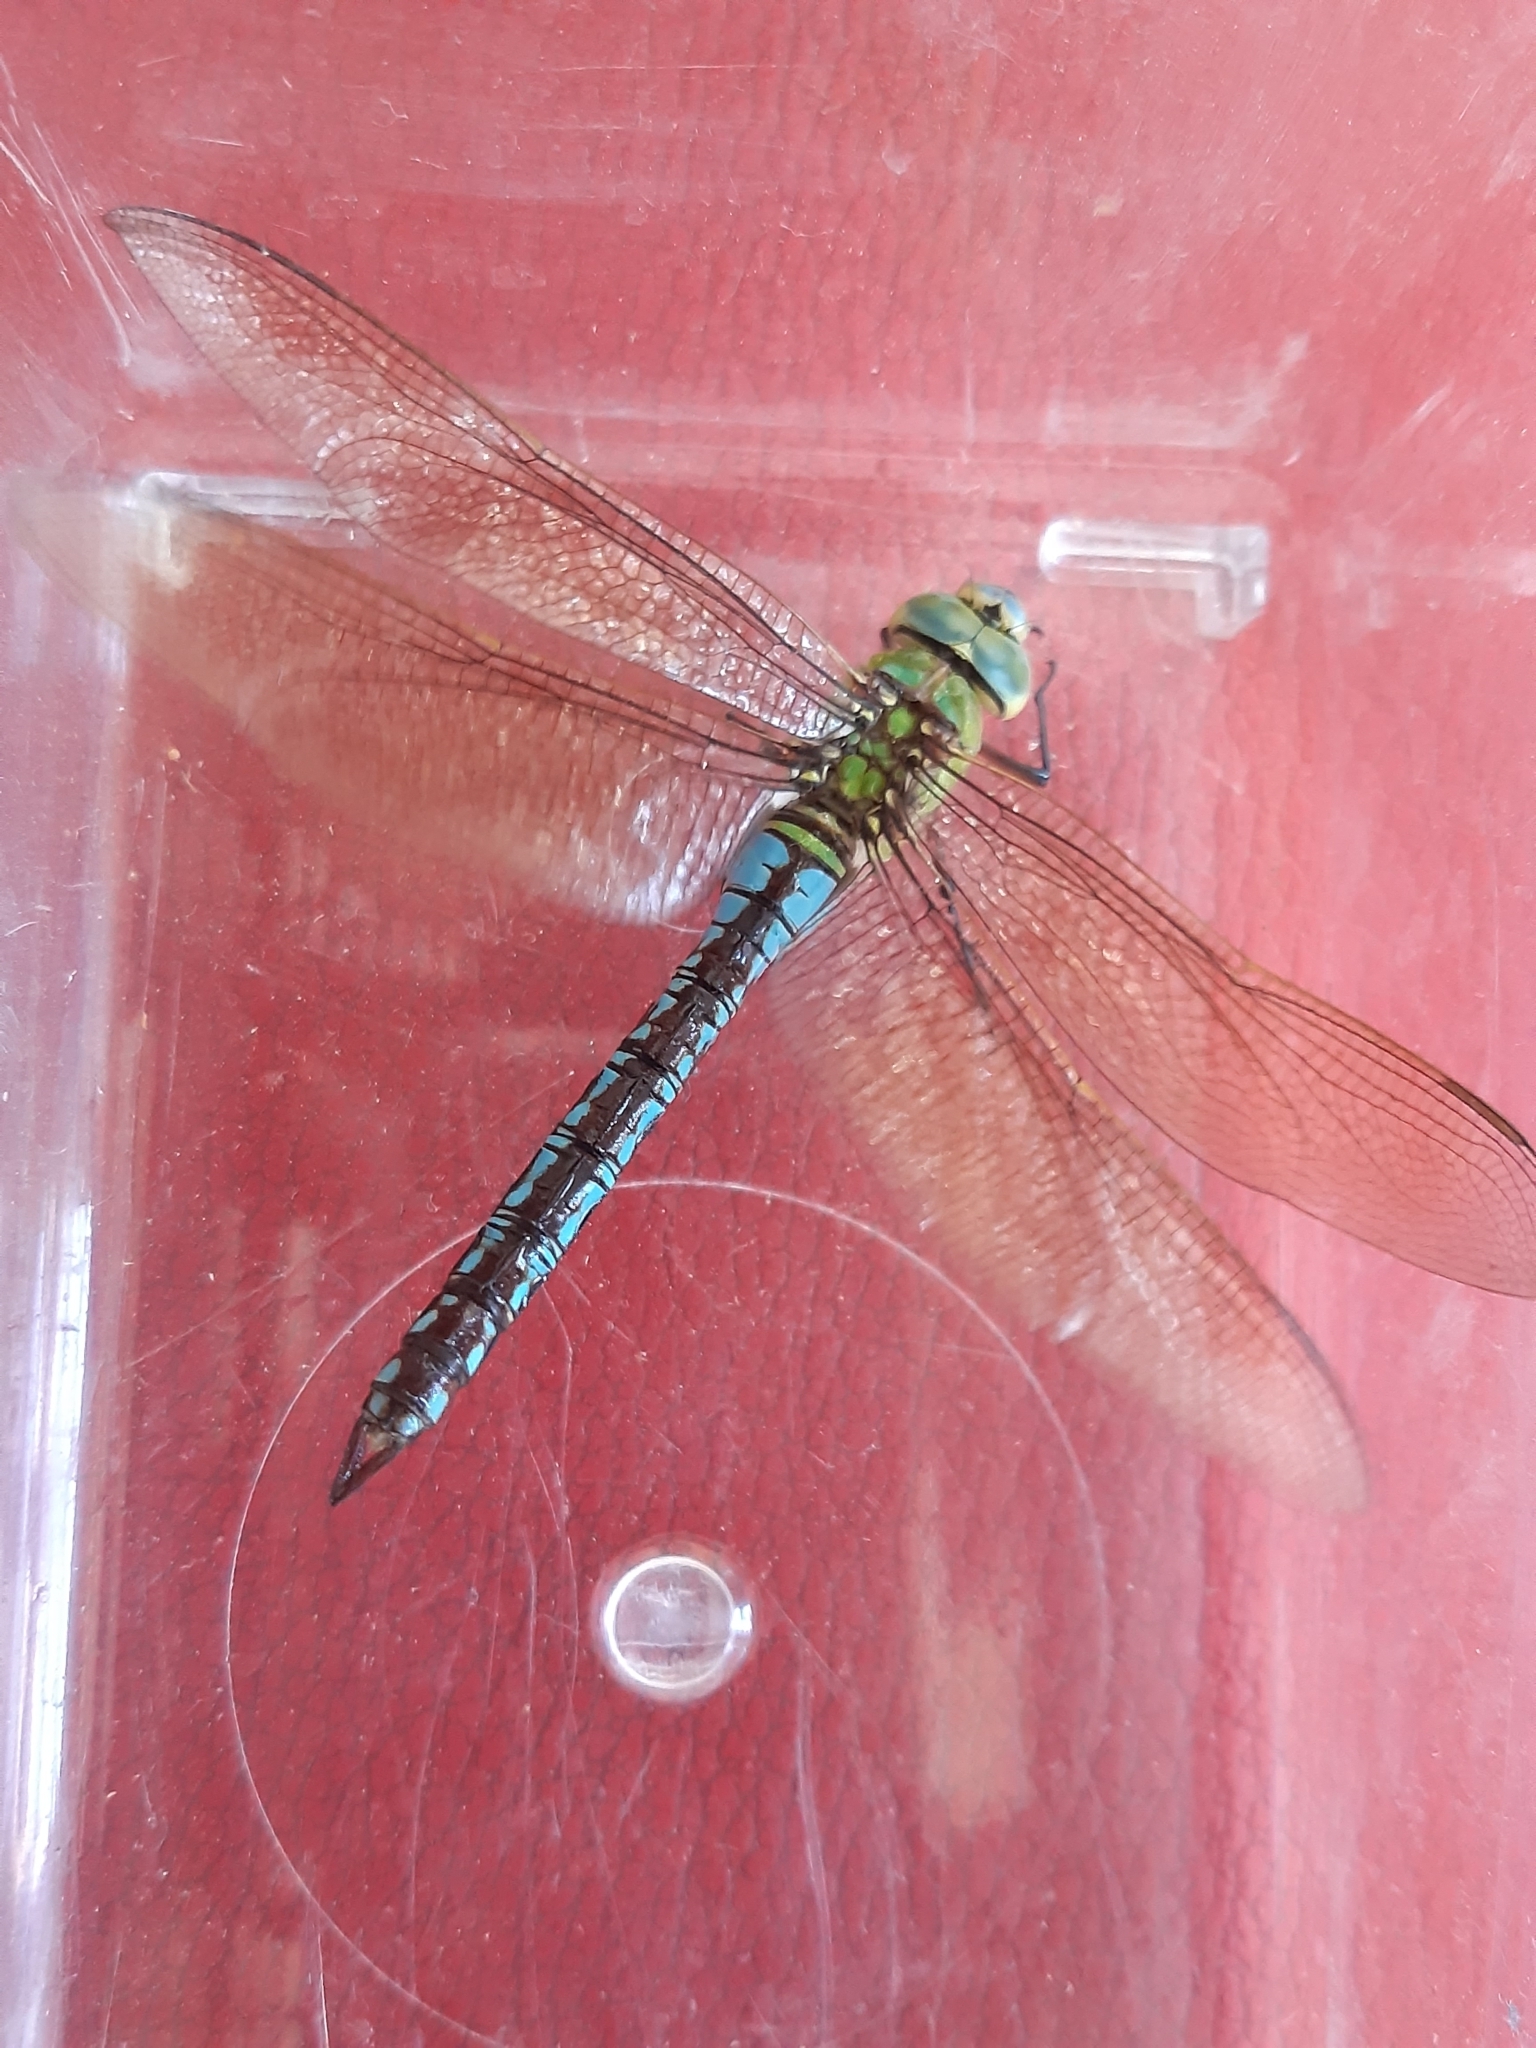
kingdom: Animalia
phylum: Arthropoda
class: Insecta
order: Odonata
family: Aeshnidae
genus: Anax
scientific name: Anax imperator
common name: Emperor dragonfly
